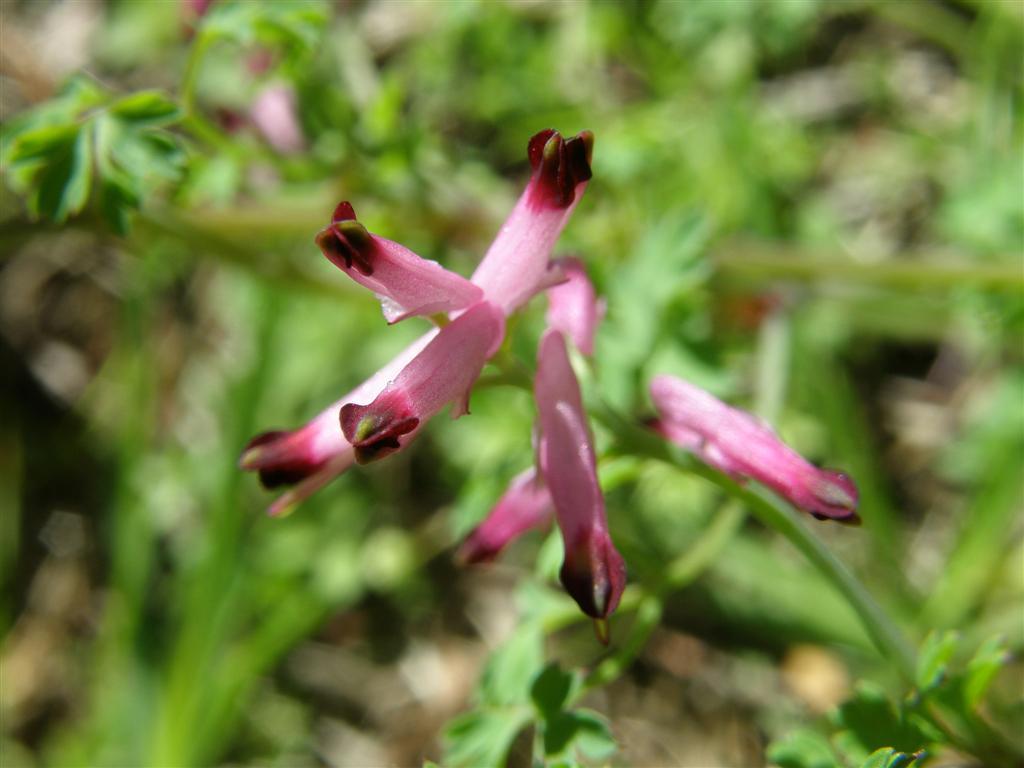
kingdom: Plantae
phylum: Tracheophyta
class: Magnoliopsida
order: Ranunculales
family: Papaveraceae
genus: Fumaria
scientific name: Fumaria muralis
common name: Common ramping-fumitory
